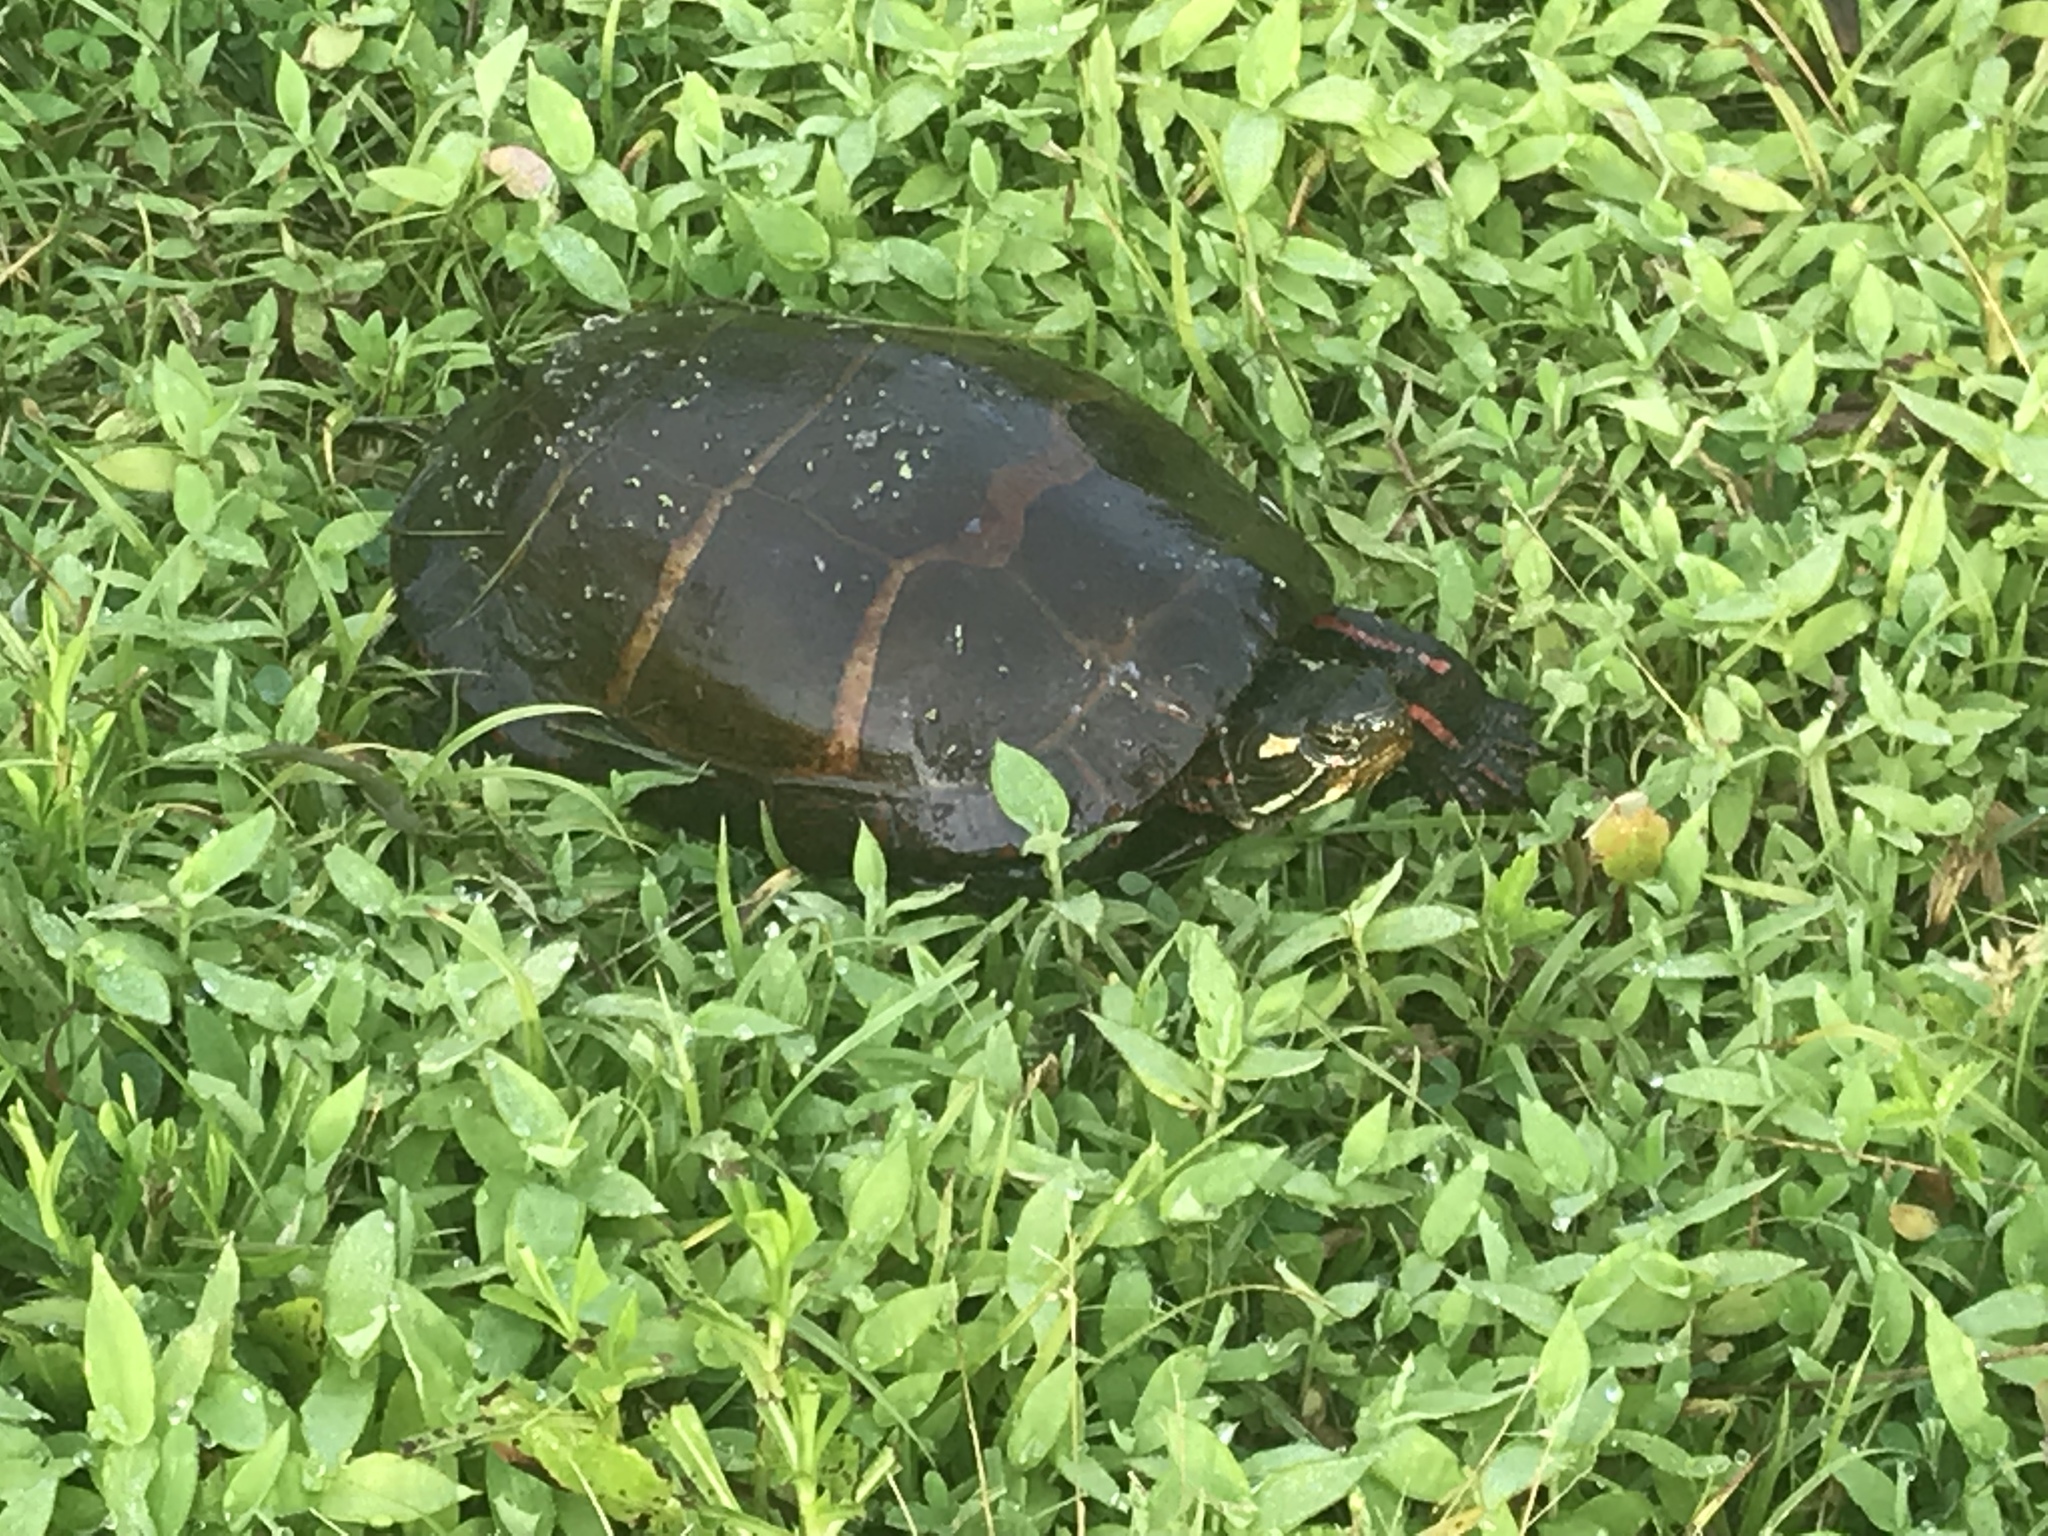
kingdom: Animalia
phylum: Chordata
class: Testudines
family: Emydidae
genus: Chrysemys
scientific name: Chrysemys picta
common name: Painted turtle
